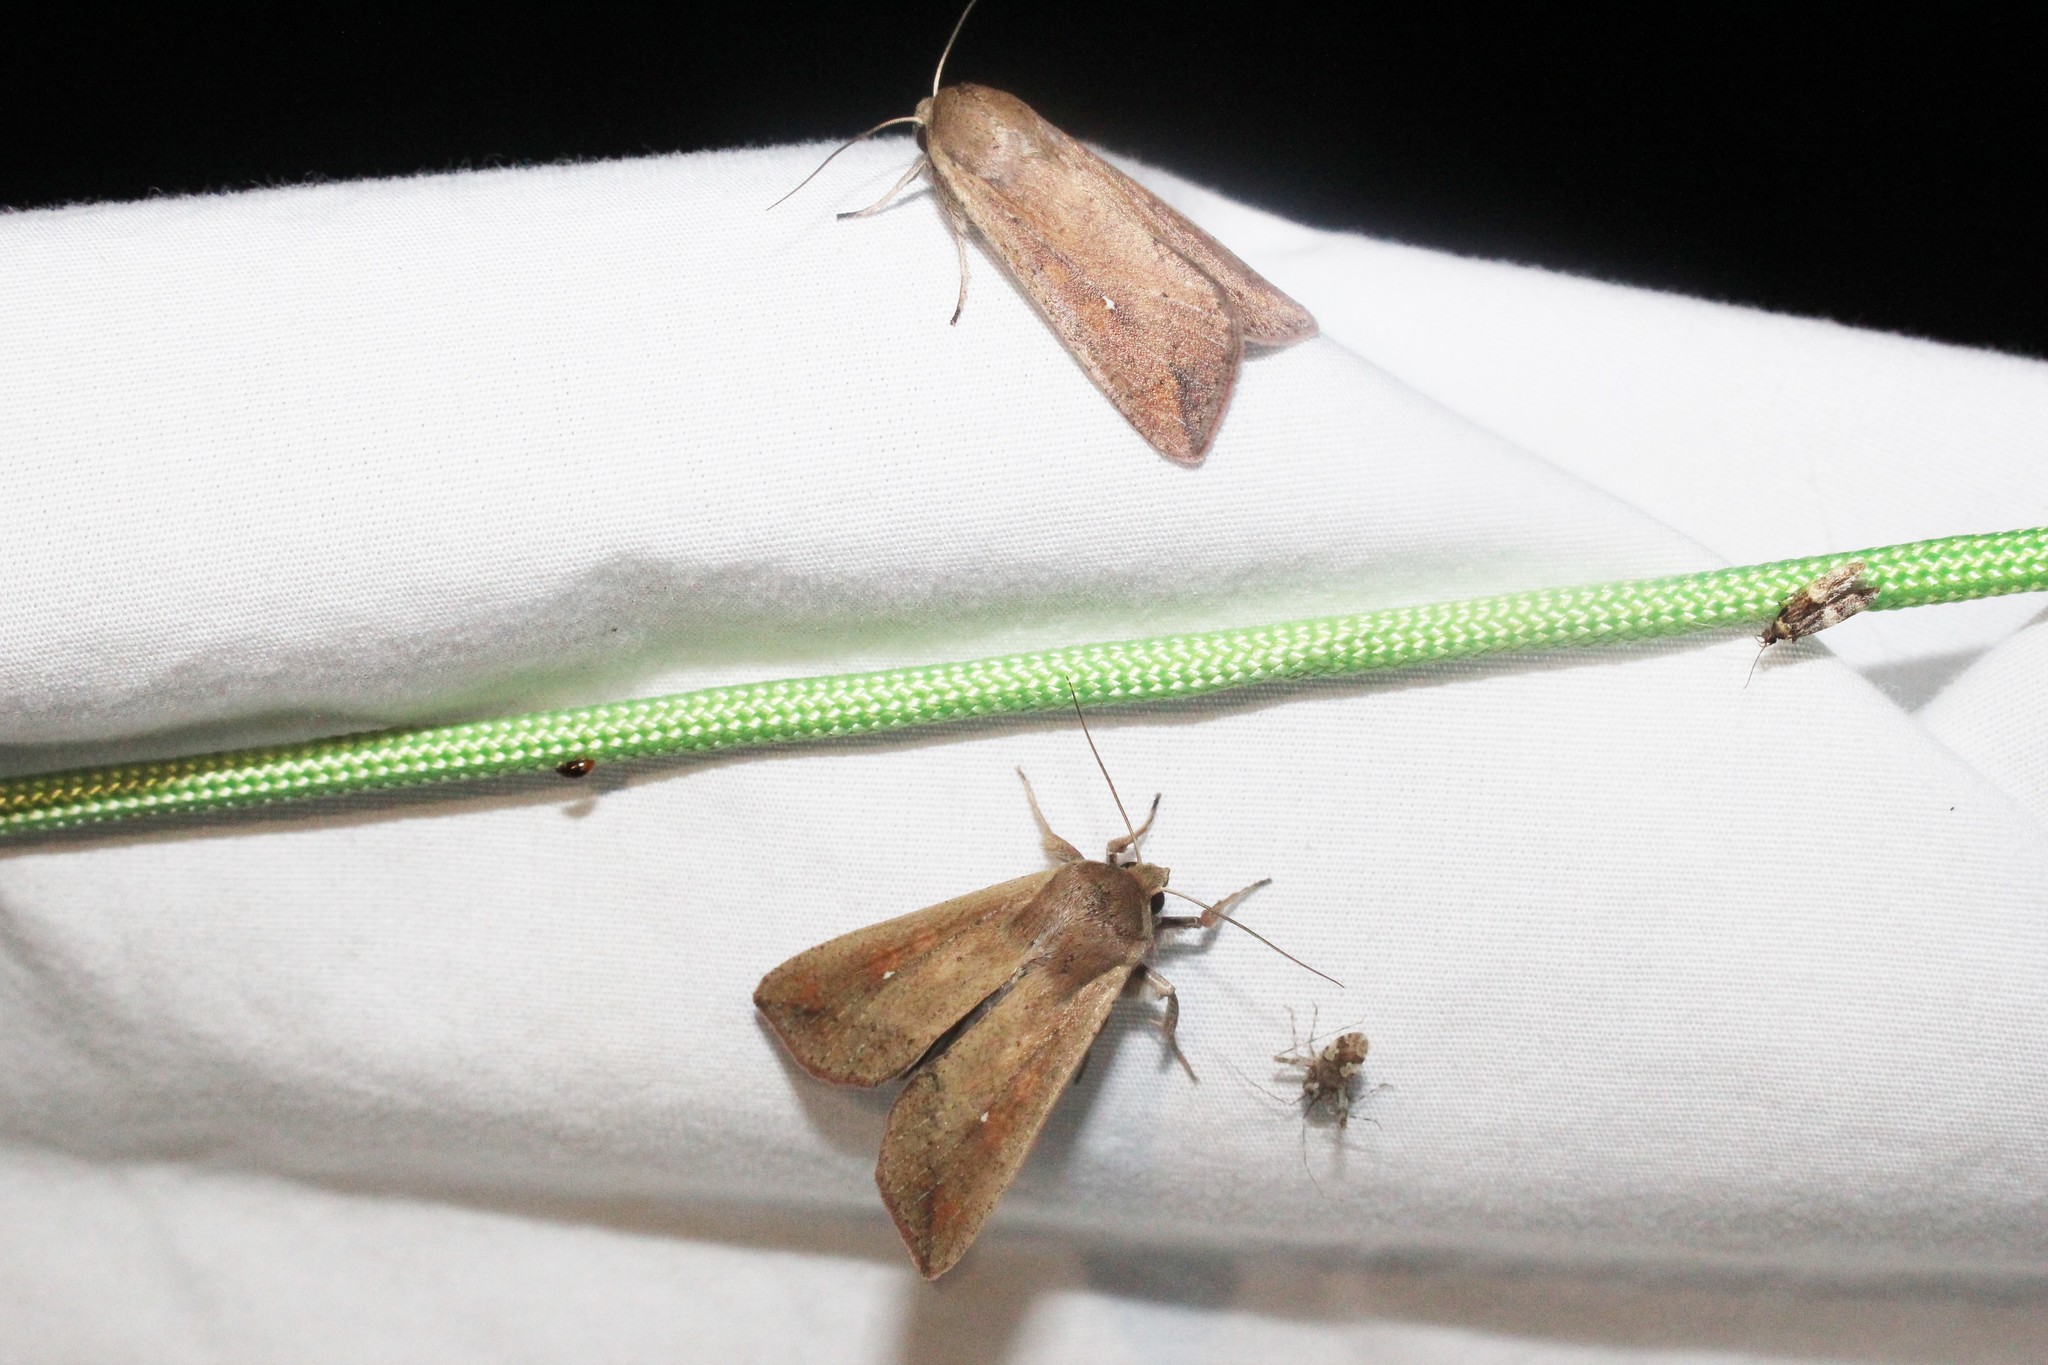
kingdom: Animalia
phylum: Arthropoda
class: Insecta
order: Lepidoptera
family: Noctuidae
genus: Mythimna
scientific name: Mythimna unipuncta
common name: White-speck
